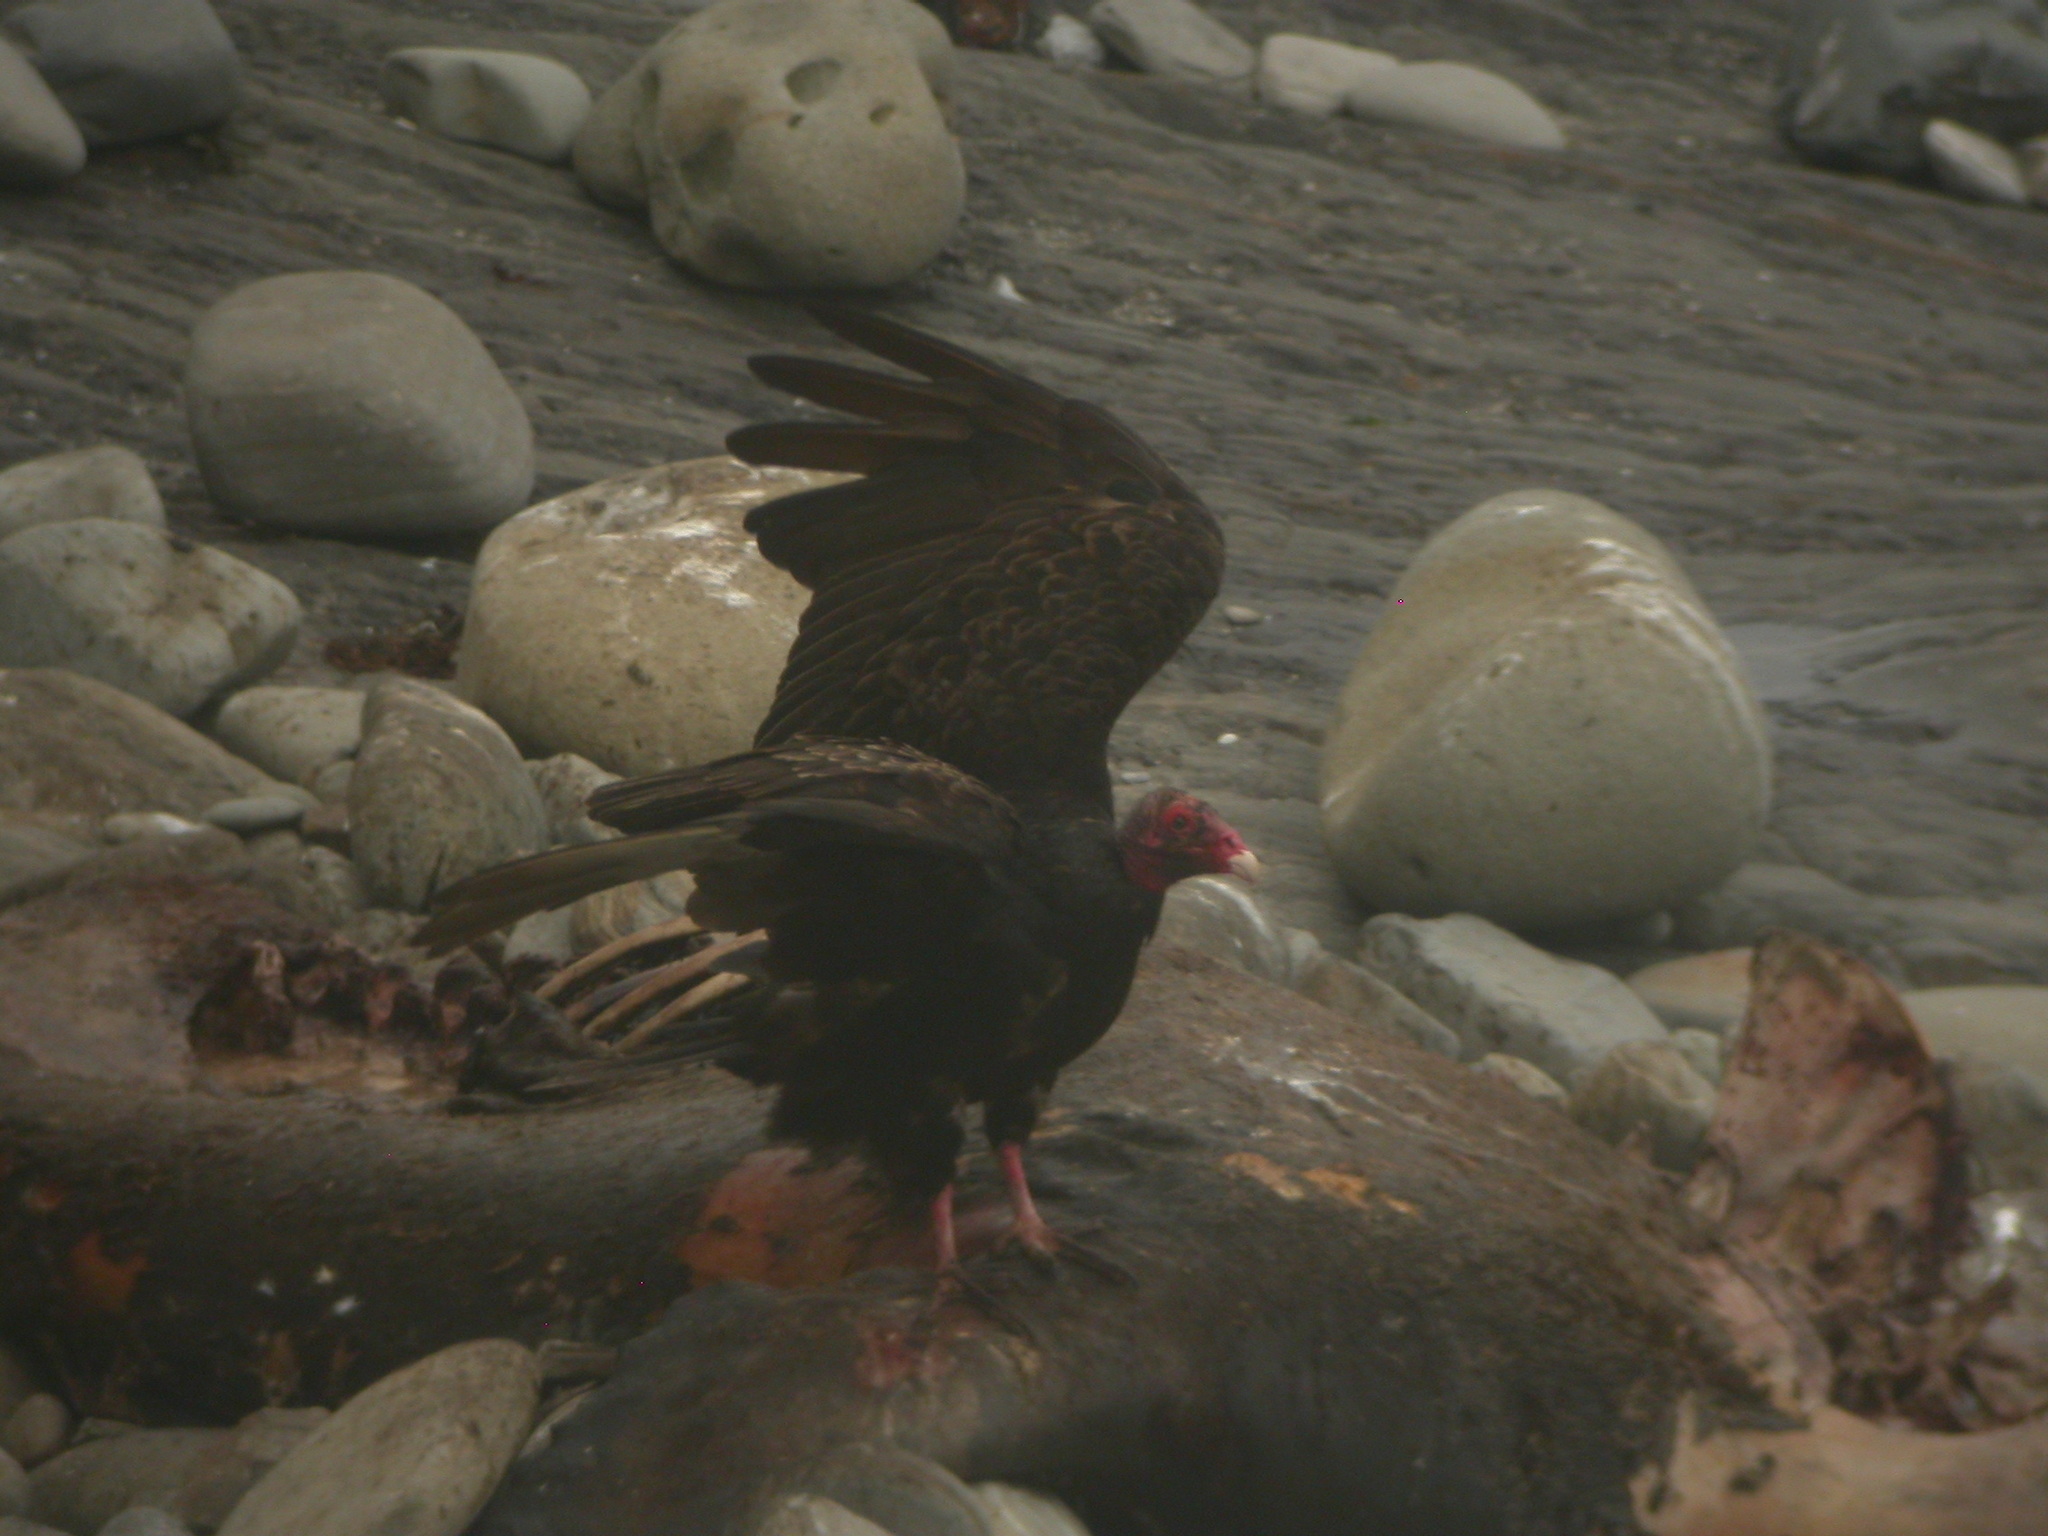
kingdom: Animalia
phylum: Chordata
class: Aves
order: Accipitriformes
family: Cathartidae
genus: Cathartes
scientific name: Cathartes aura
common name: Turkey vulture
